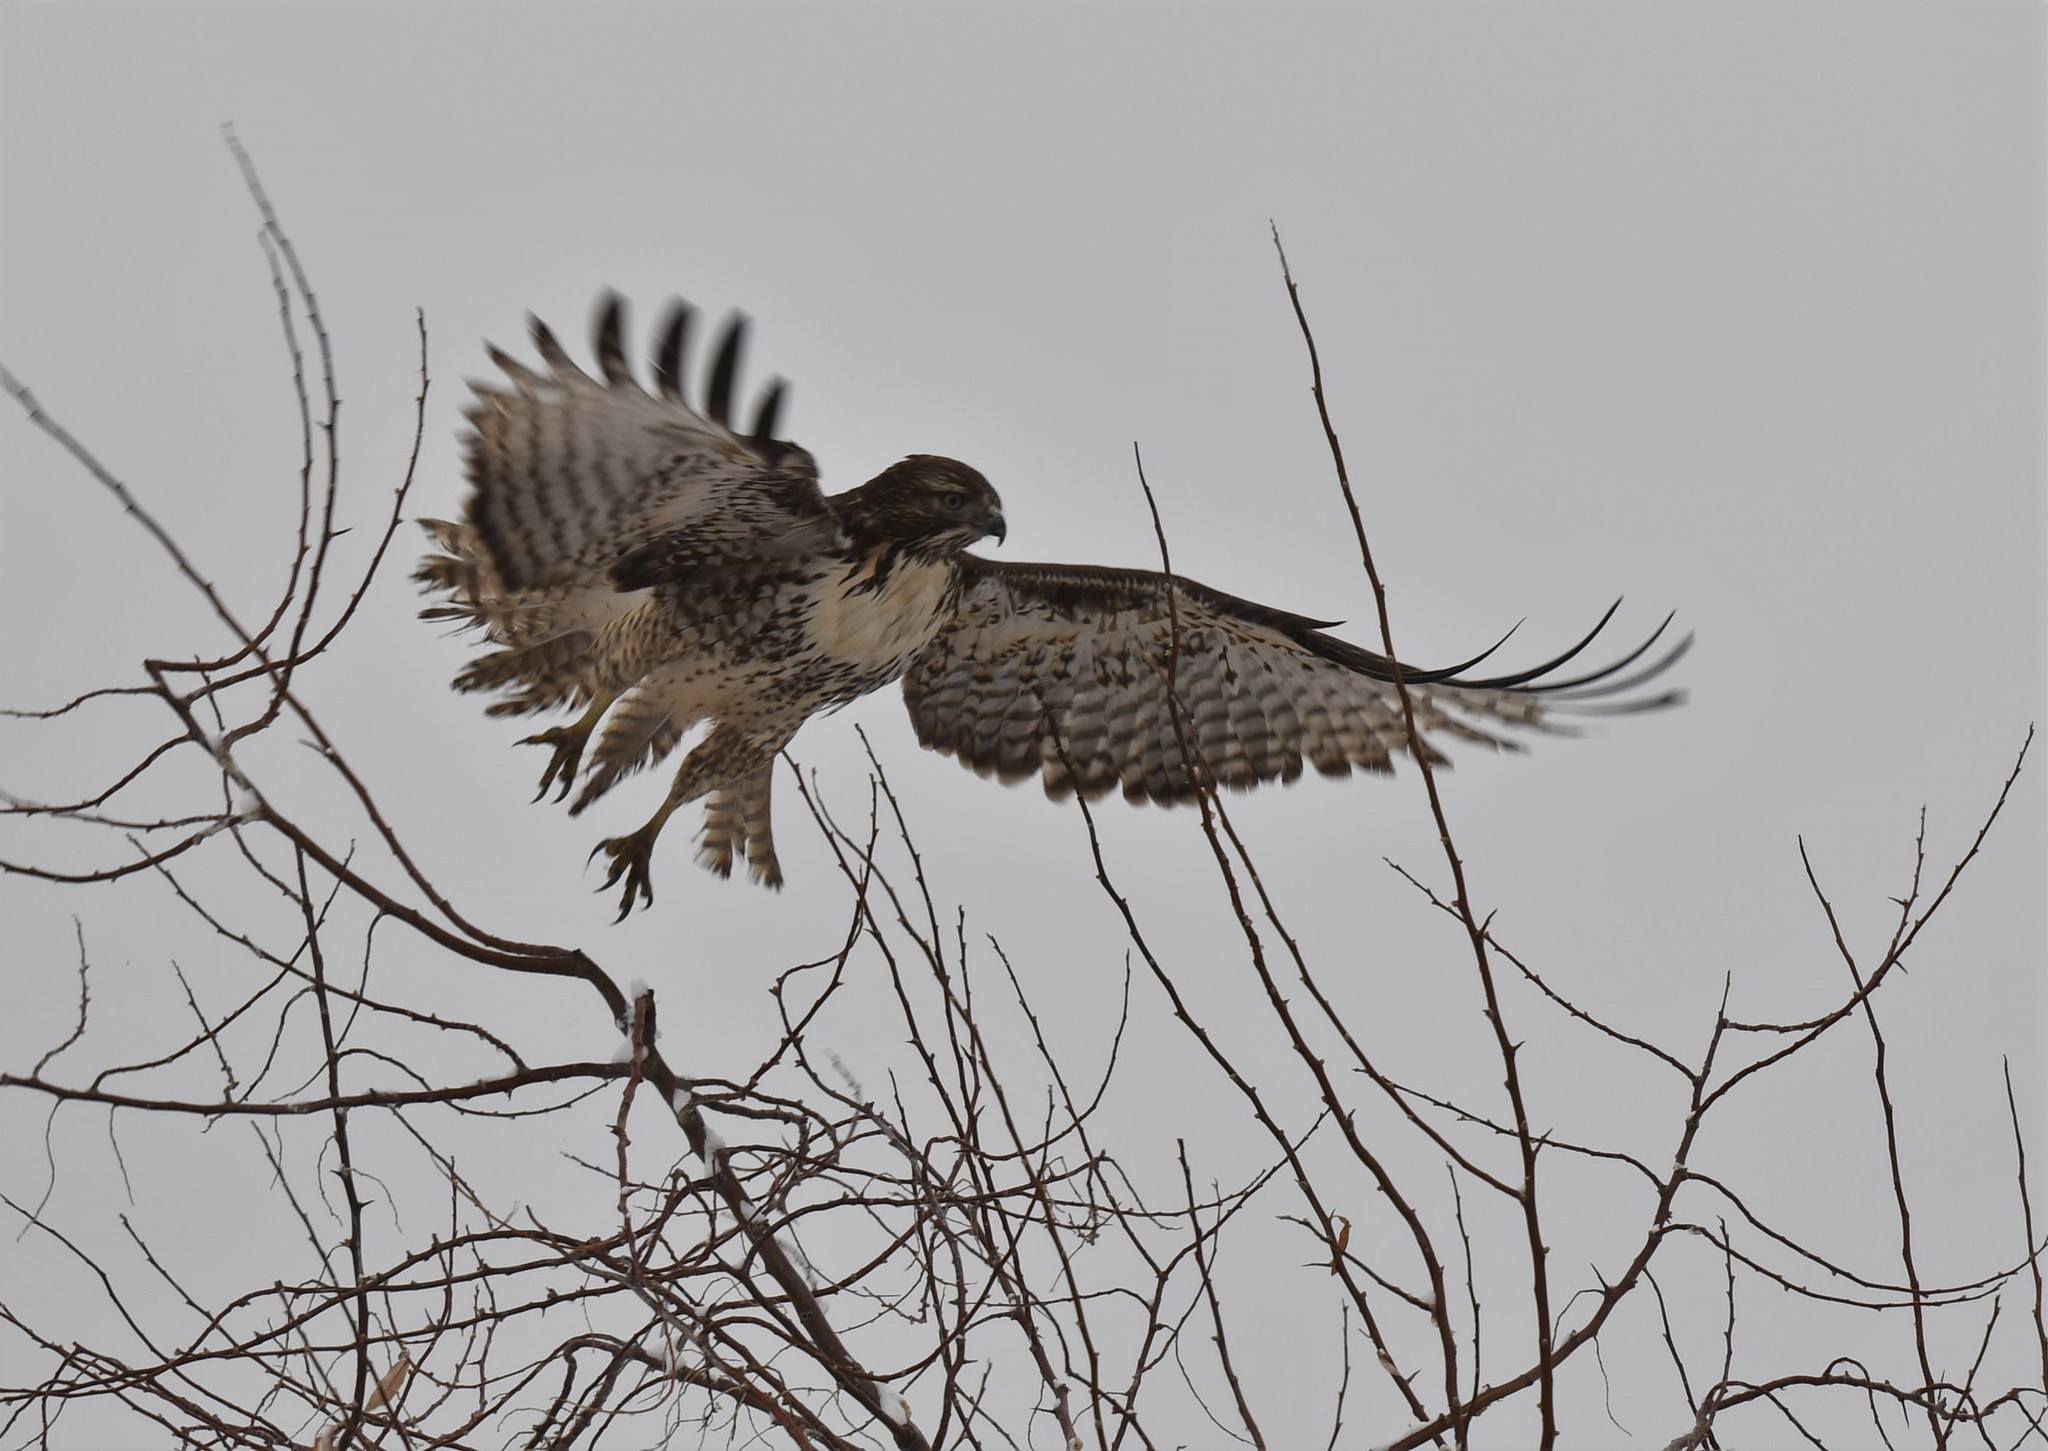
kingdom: Animalia
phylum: Chordata
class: Aves
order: Accipitriformes
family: Accipitridae
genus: Buteo
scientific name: Buteo jamaicensis
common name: Red-tailed hawk
